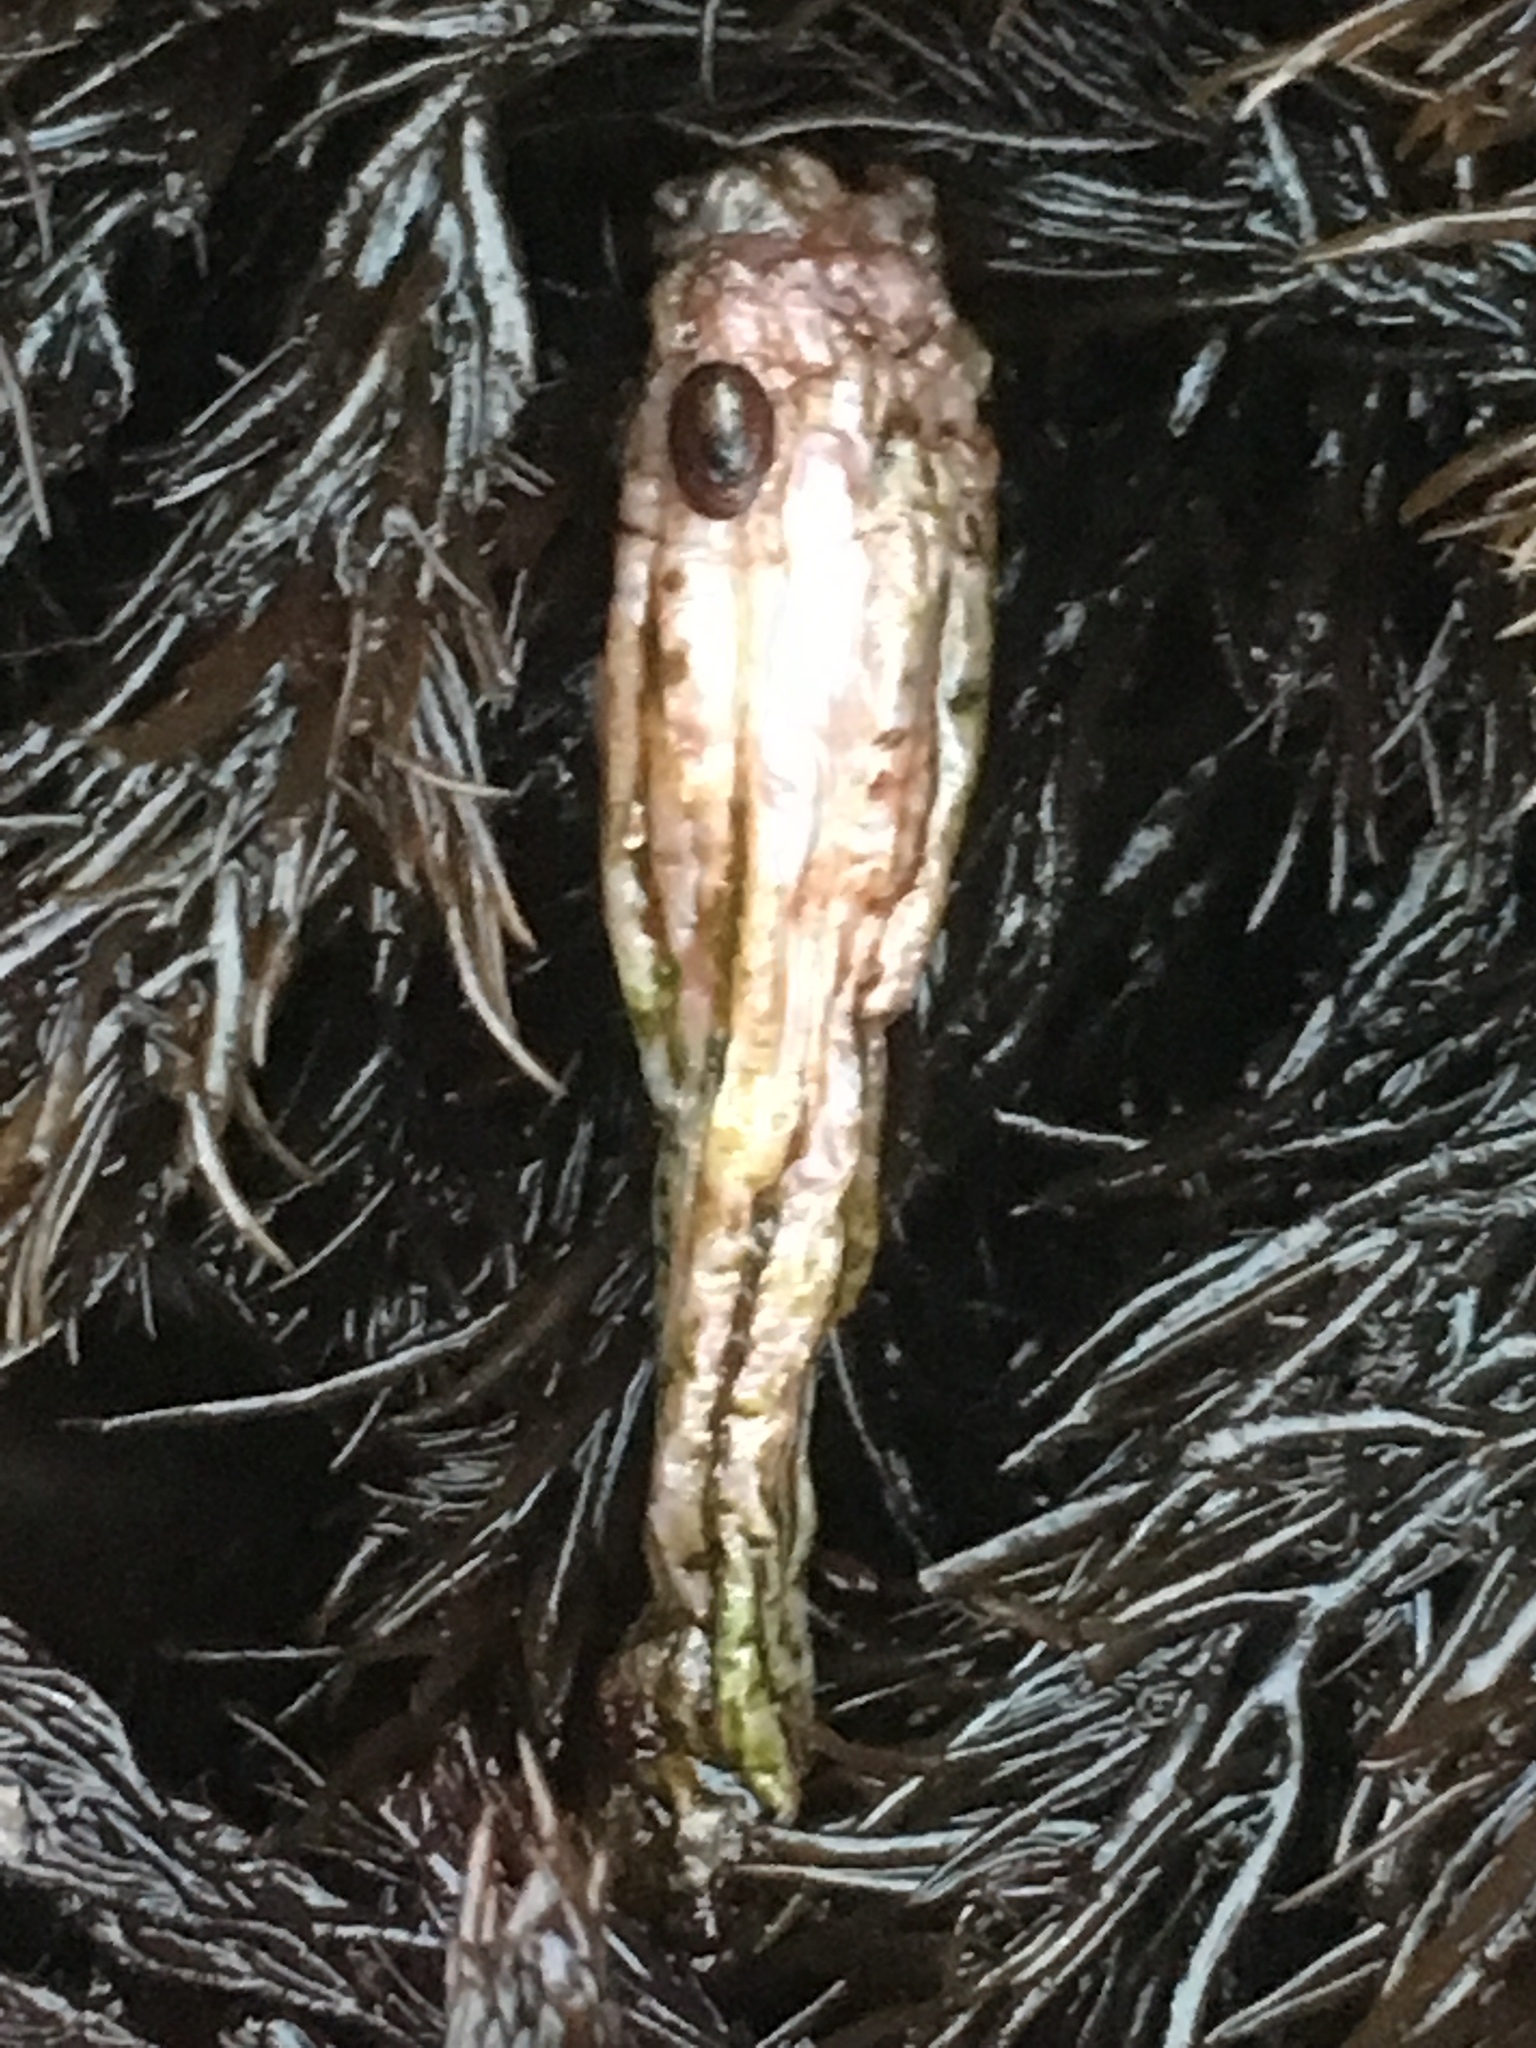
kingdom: Animalia
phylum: Chordata
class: Ascidiacea
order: Stolidobranchia
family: Styelidae
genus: Styela
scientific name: Styela montereyensis
